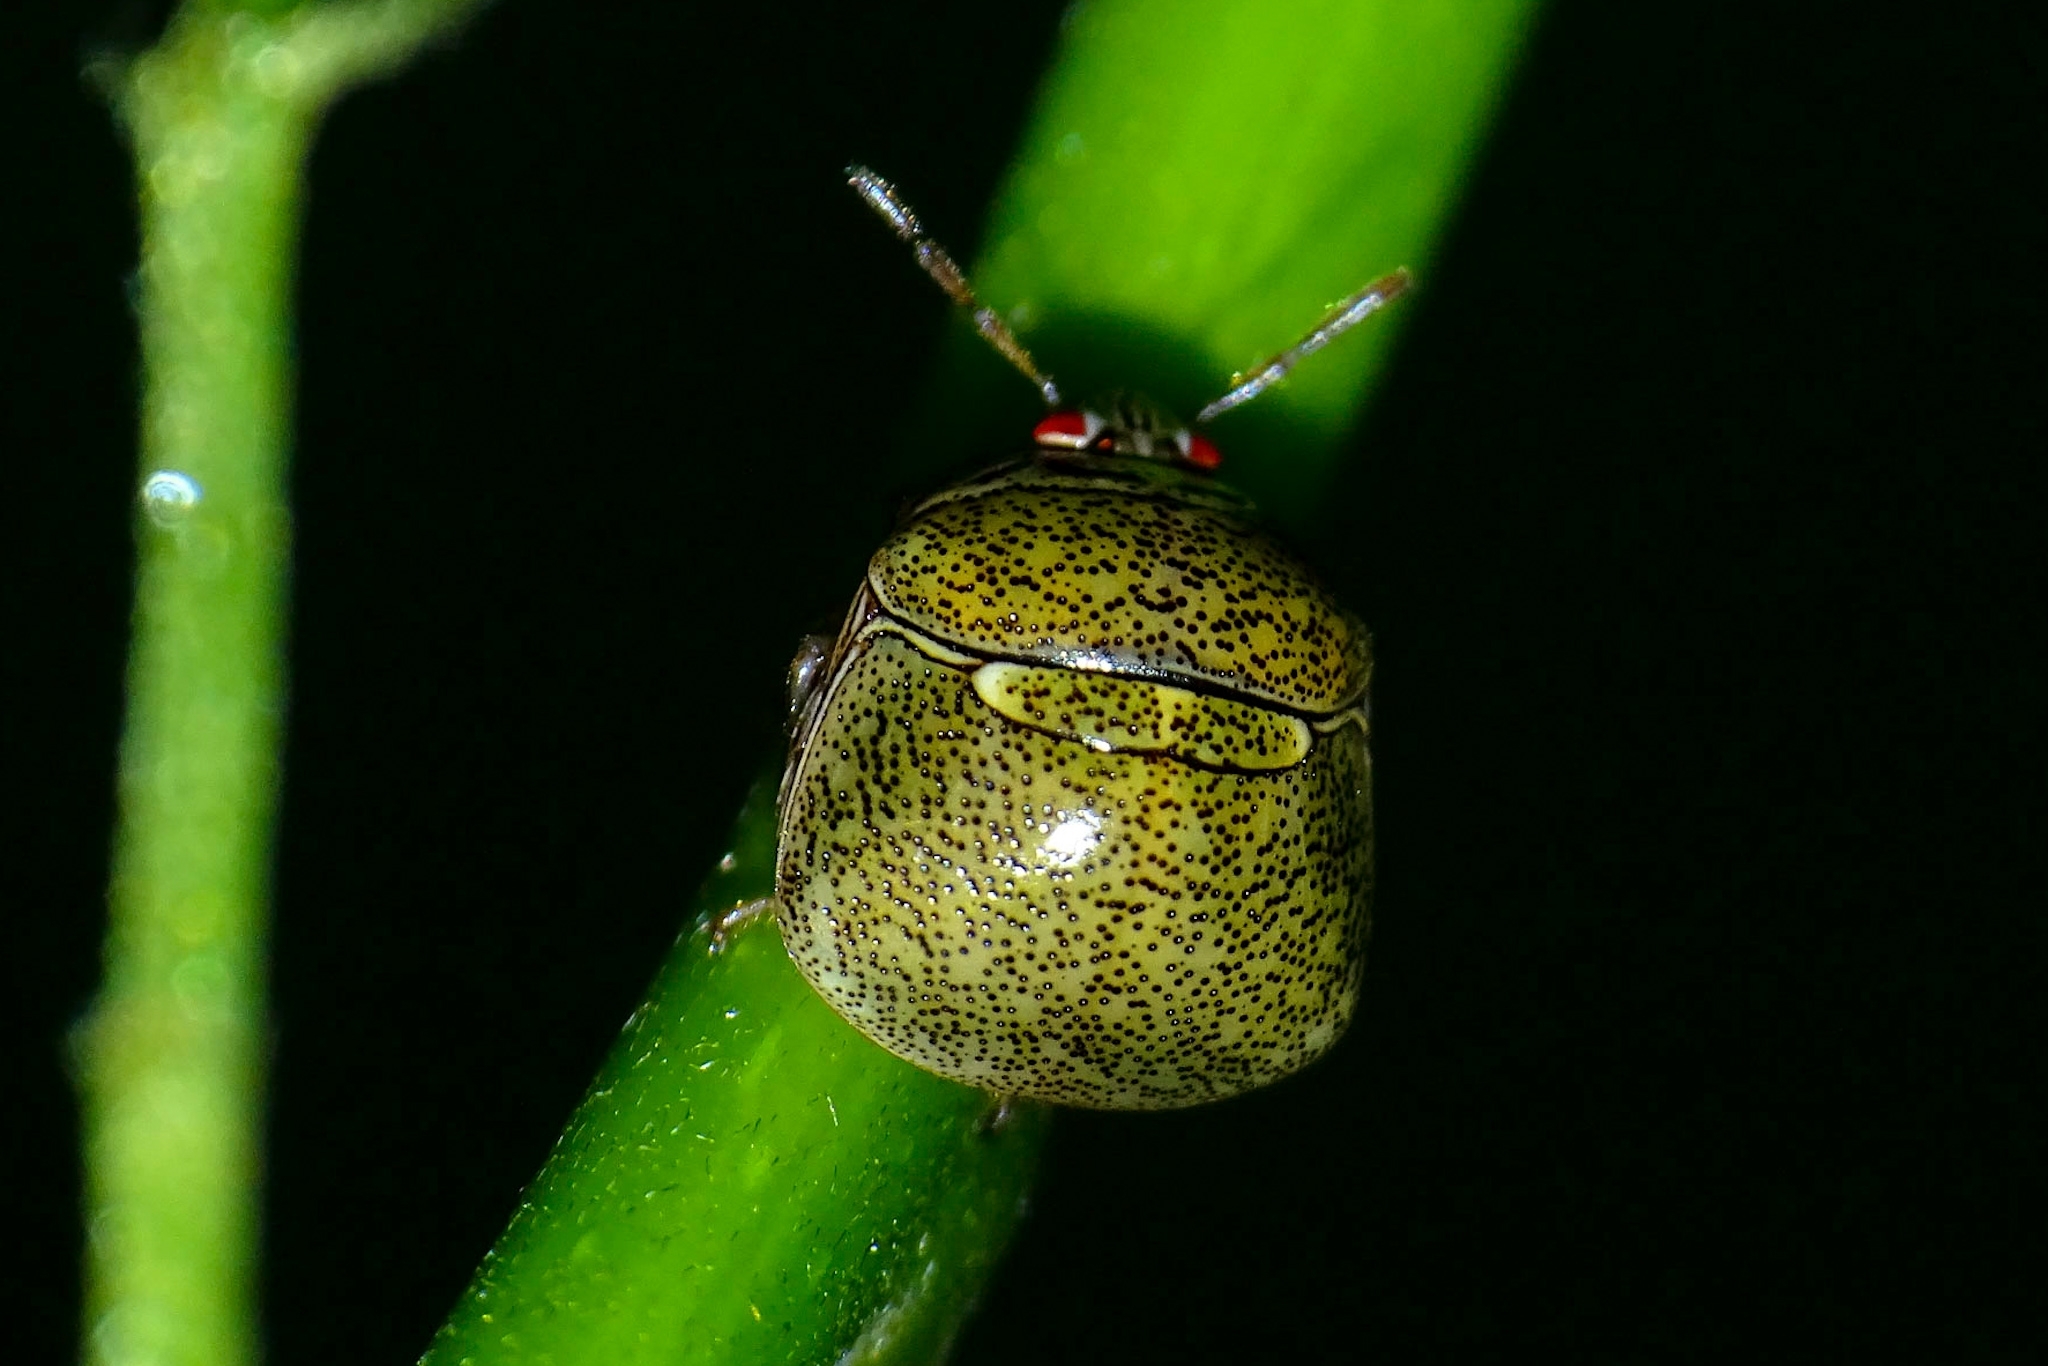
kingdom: Animalia
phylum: Arthropoda
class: Insecta
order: Hemiptera
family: Plataspidae
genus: Megacopta
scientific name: Megacopta cribraria
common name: Bean plataspid
